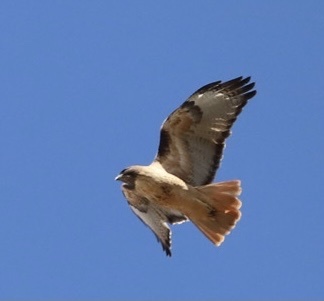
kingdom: Animalia
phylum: Chordata
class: Aves
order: Accipitriformes
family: Accipitridae
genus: Buteo
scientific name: Buteo jamaicensis
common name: Red-tailed hawk
